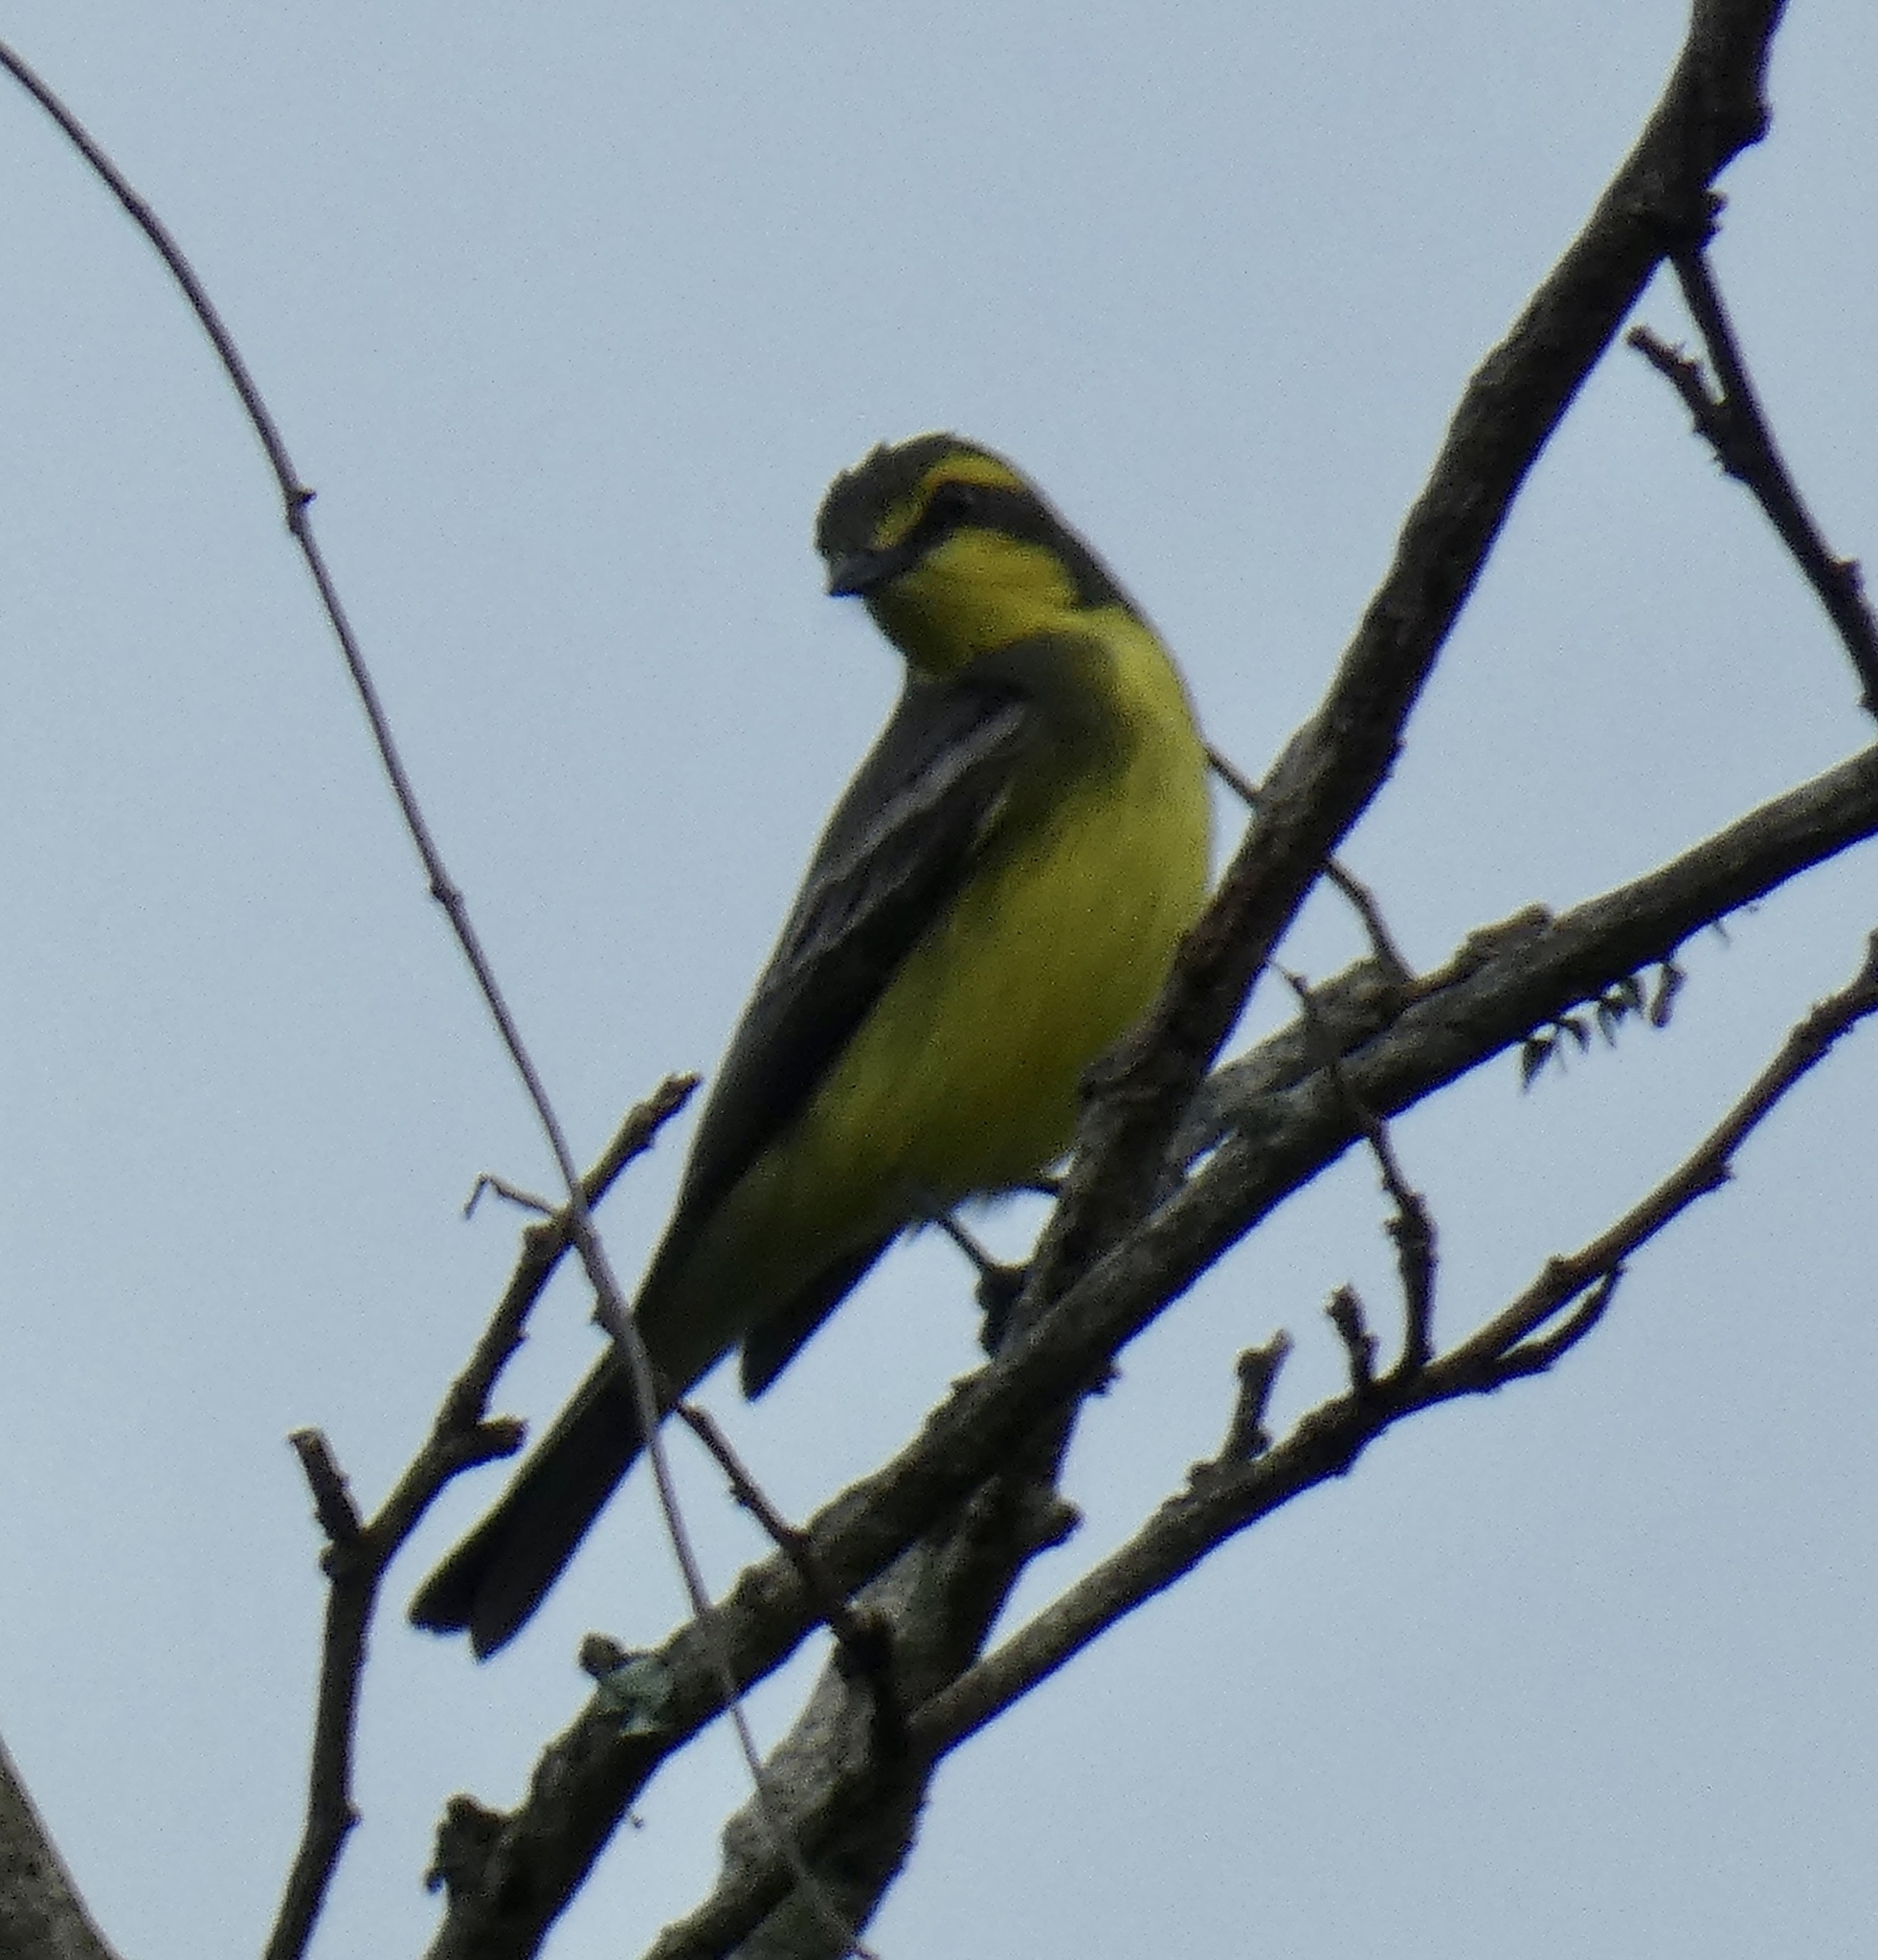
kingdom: Animalia
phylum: Chordata
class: Aves
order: Passeriformes
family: Tyrannidae
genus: Satrapa
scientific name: Satrapa icterophrys
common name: Yellow-browed tyrant
